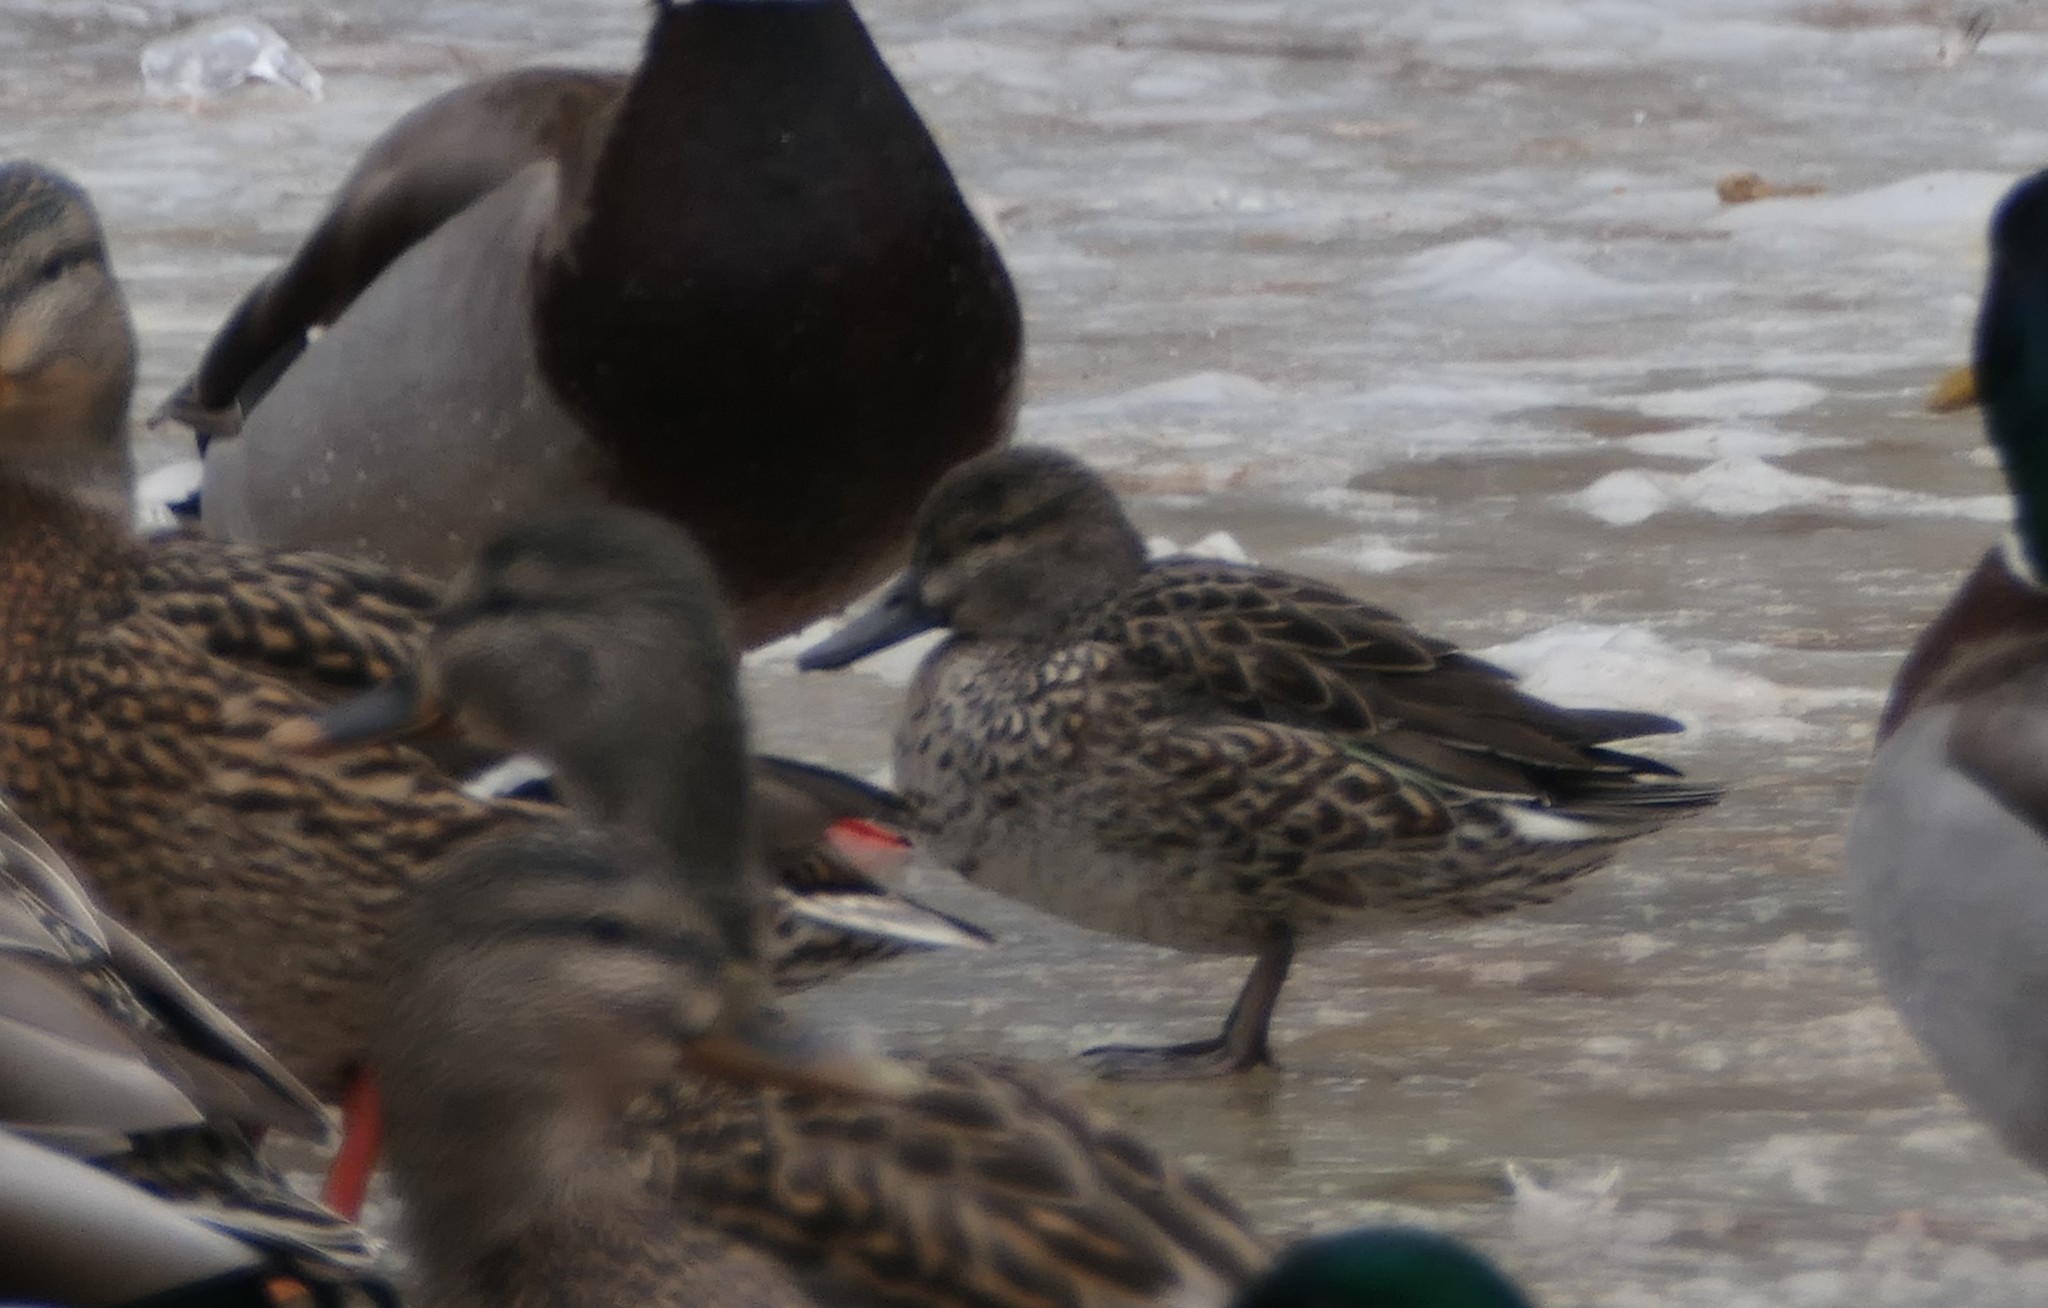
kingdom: Animalia
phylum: Chordata
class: Aves
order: Anseriformes
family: Anatidae
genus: Anas
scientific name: Anas crecca
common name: Eurasian teal
